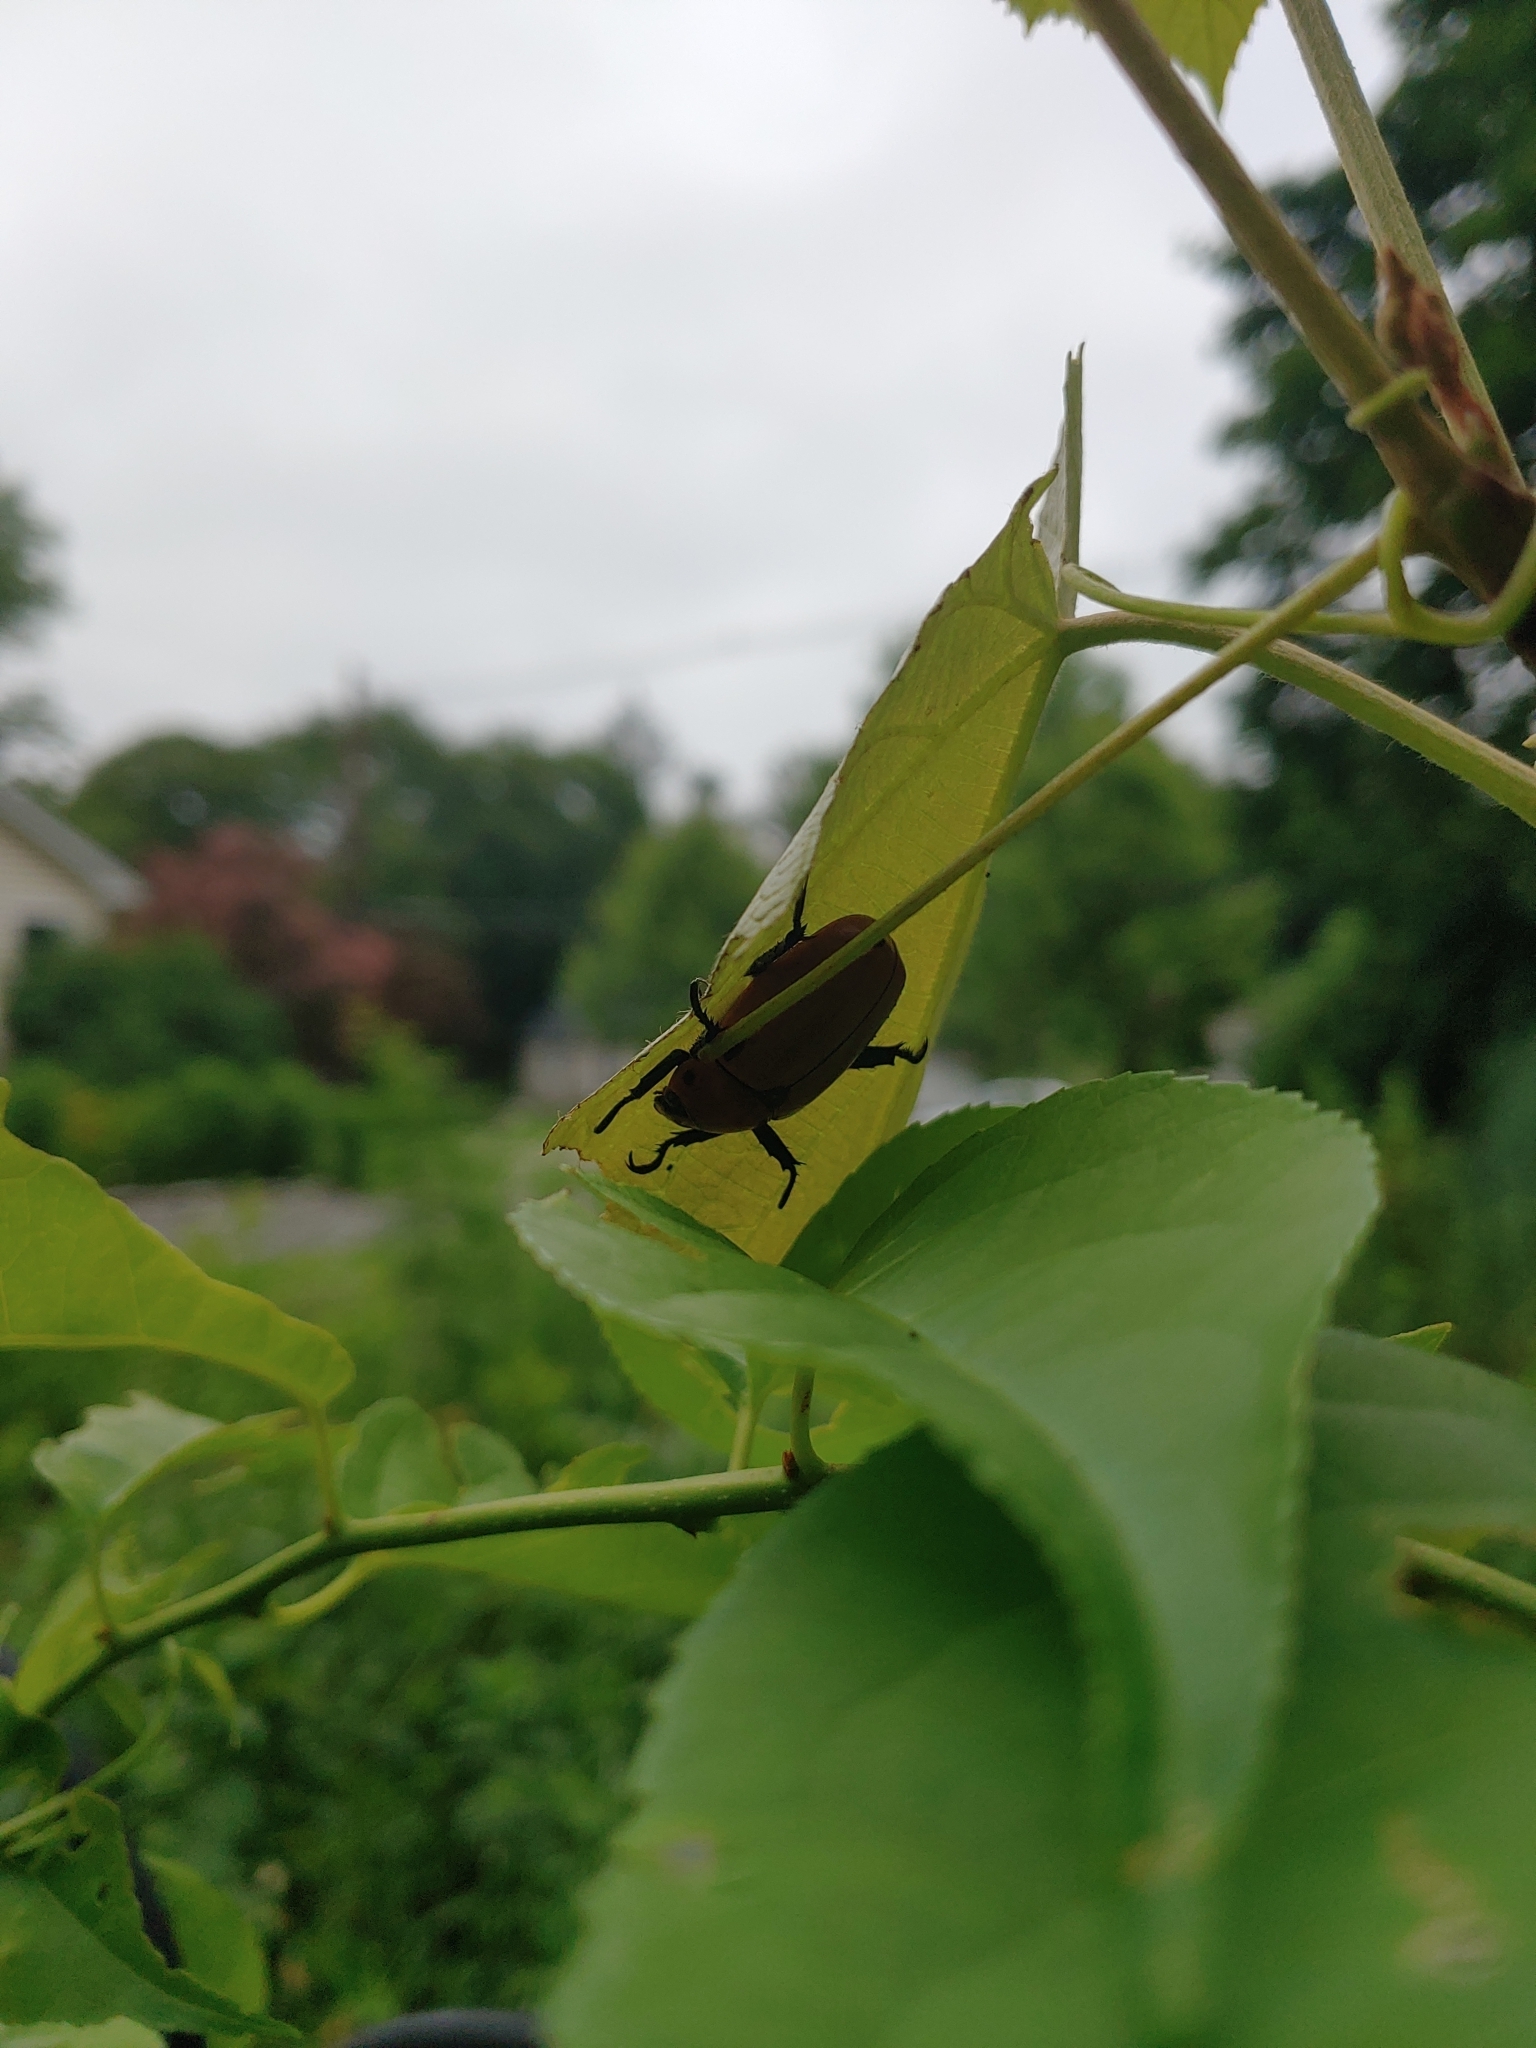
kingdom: Animalia
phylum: Arthropoda
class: Insecta
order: Coleoptera
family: Scarabaeidae
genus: Pelidnota
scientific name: Pelidnota punctata
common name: Grapevine beetle
